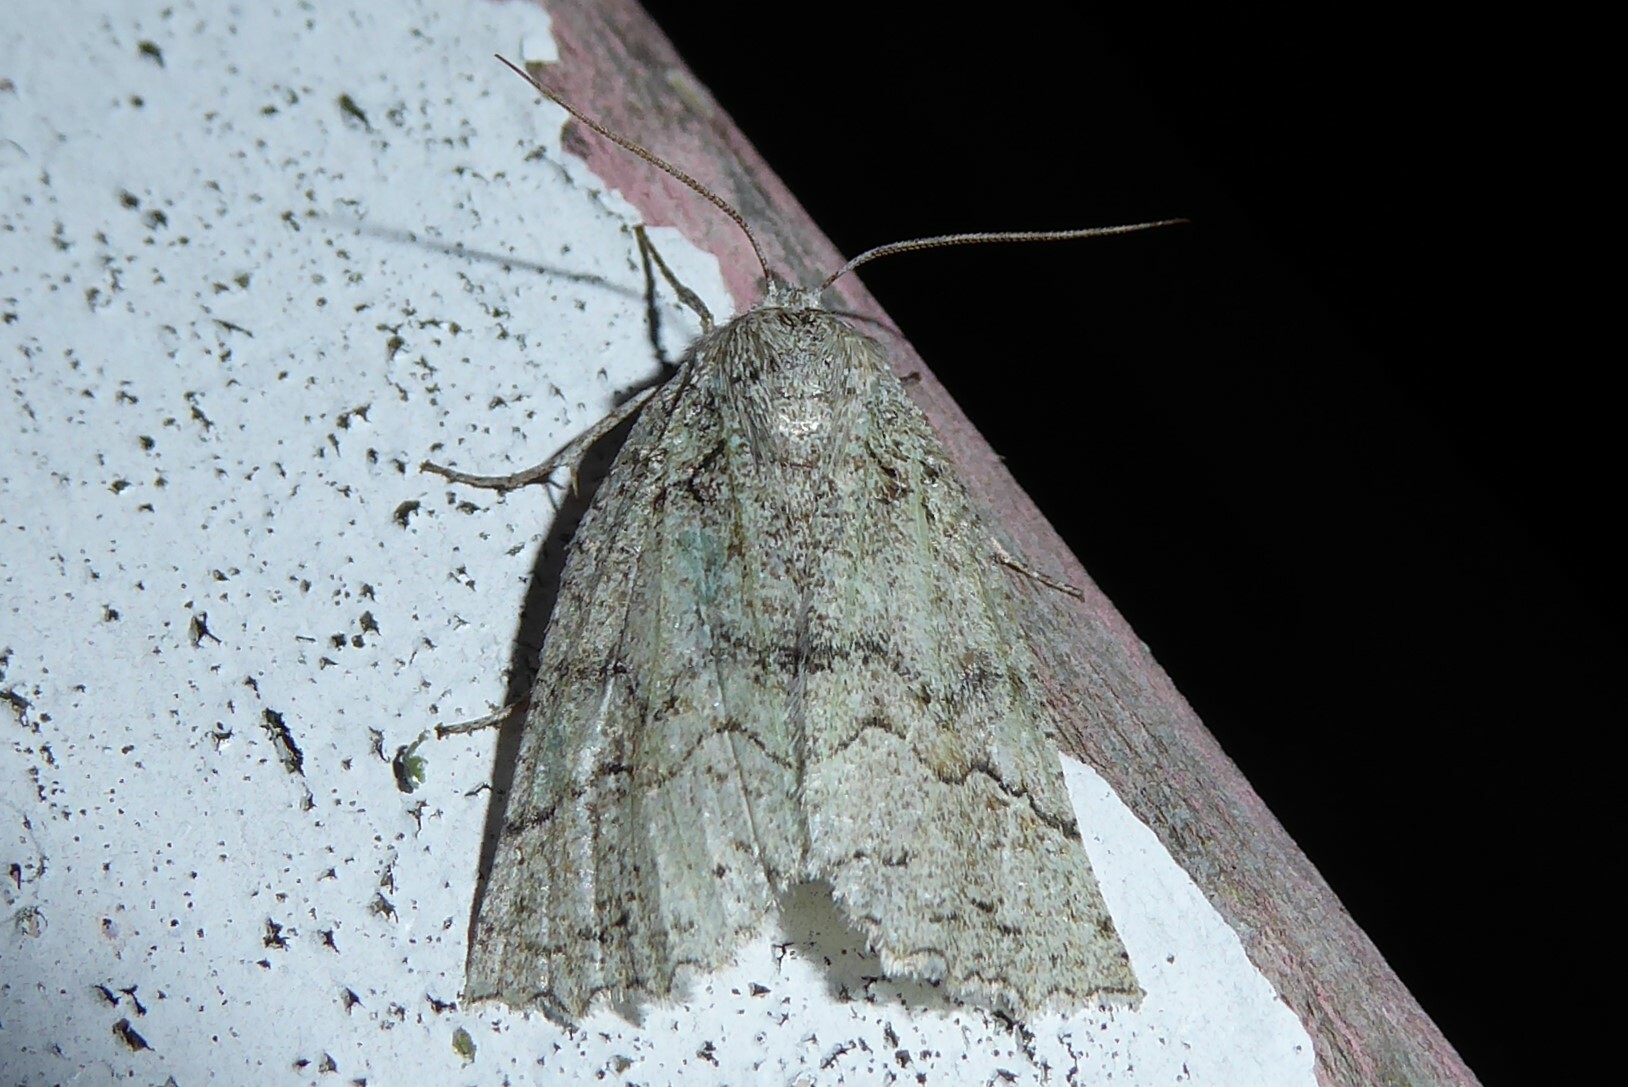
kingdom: Animalia
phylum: Arthropoda
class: Insecta
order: Lepidoptera
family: Geometridae
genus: Declana
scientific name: Declana floccosa
